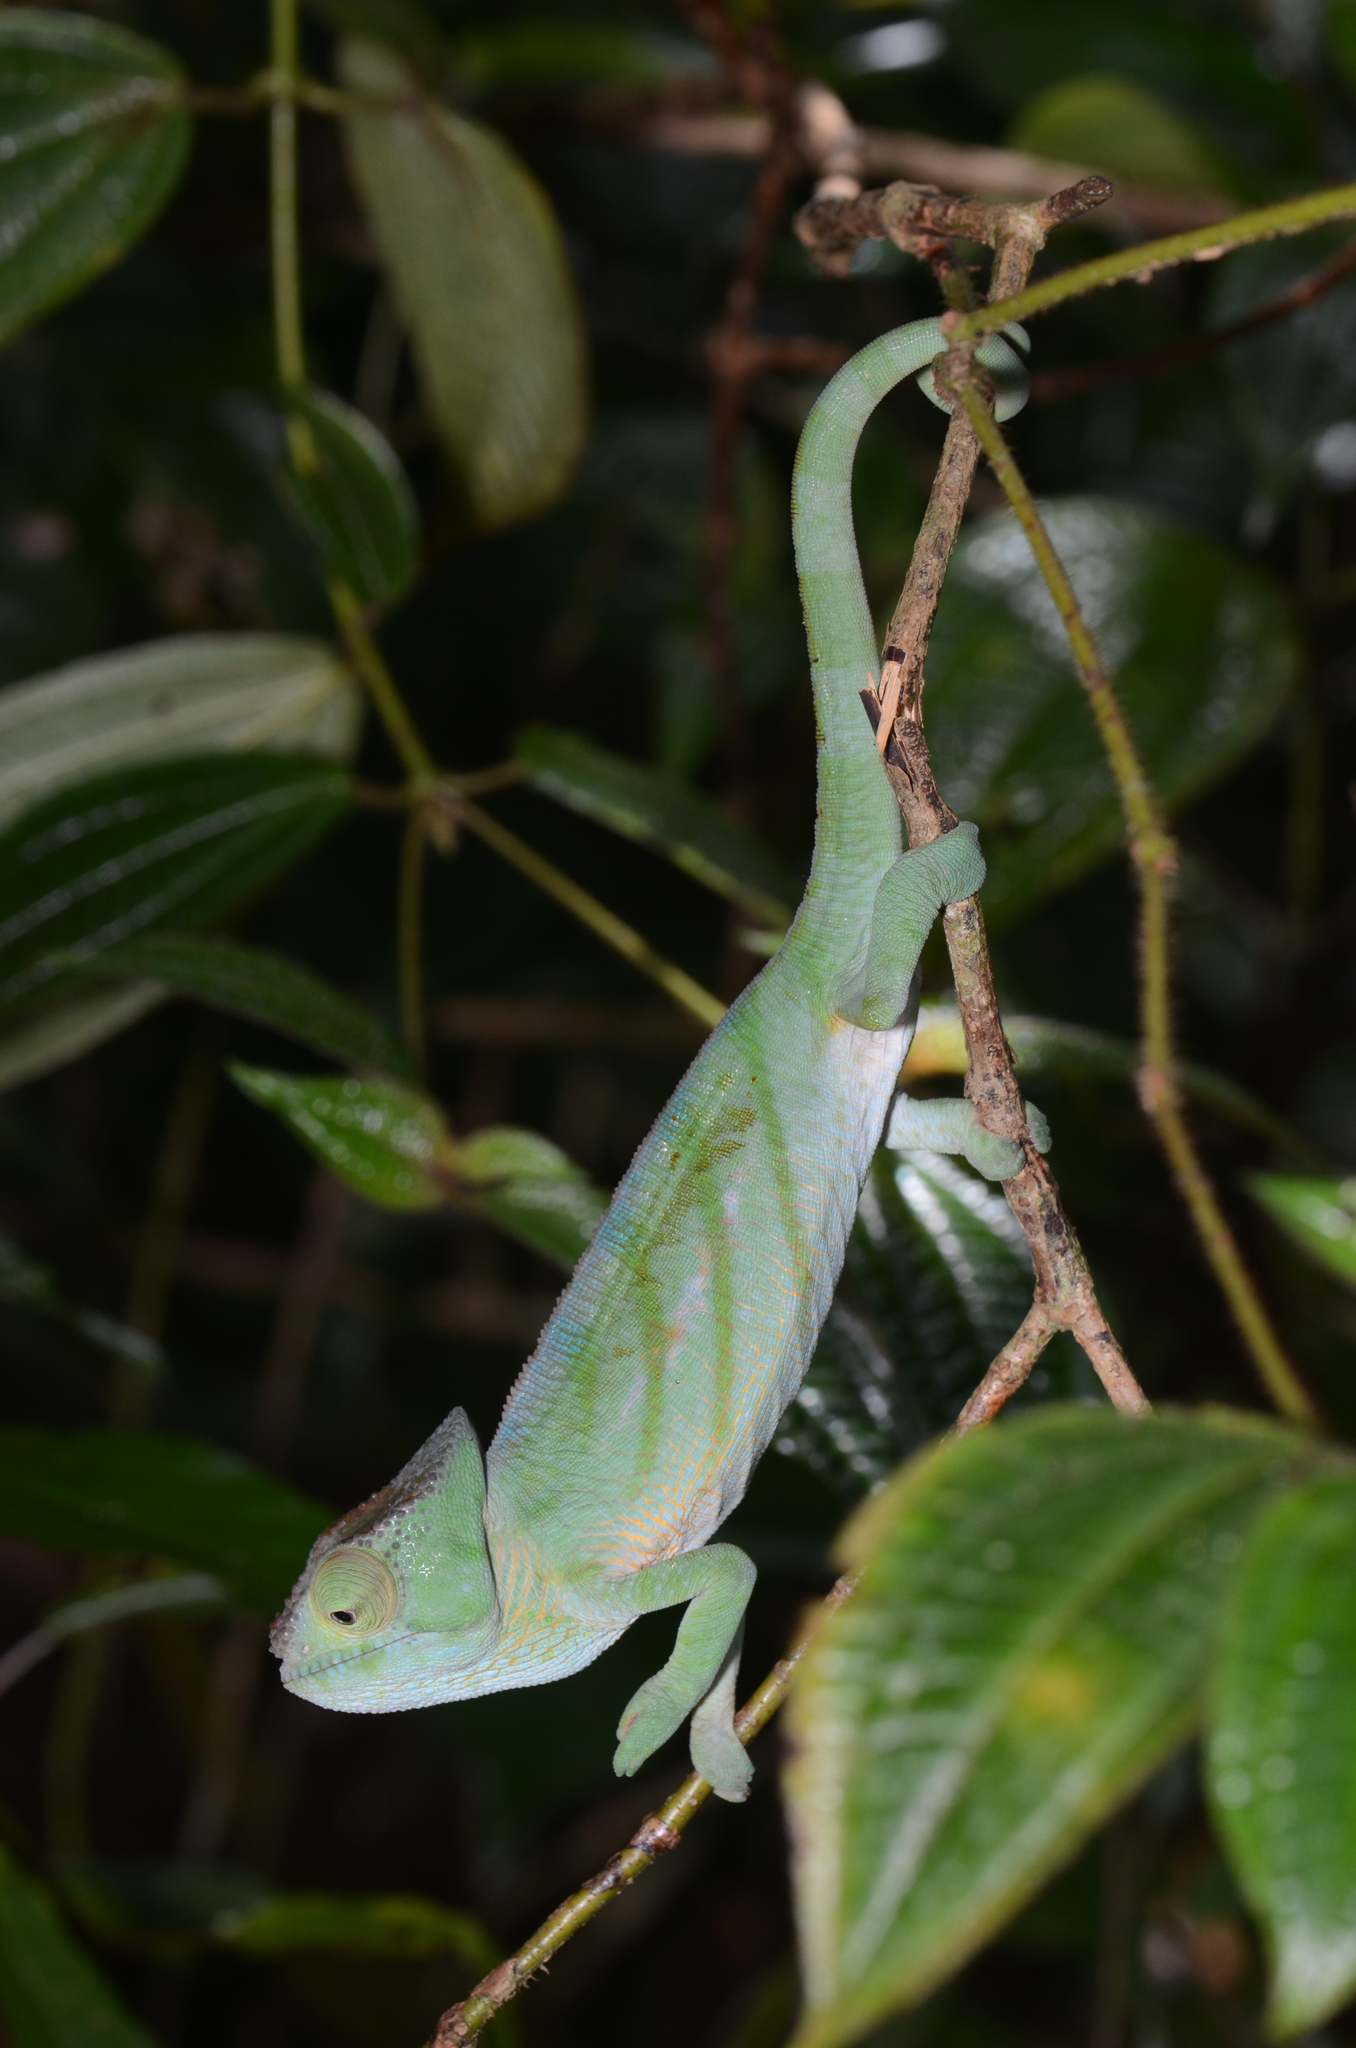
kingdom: Animalia
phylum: Chordata
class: Squamata
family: Chamaeleonidae
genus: Calumma
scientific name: Calumma parsonii
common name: Parson's chameleon
